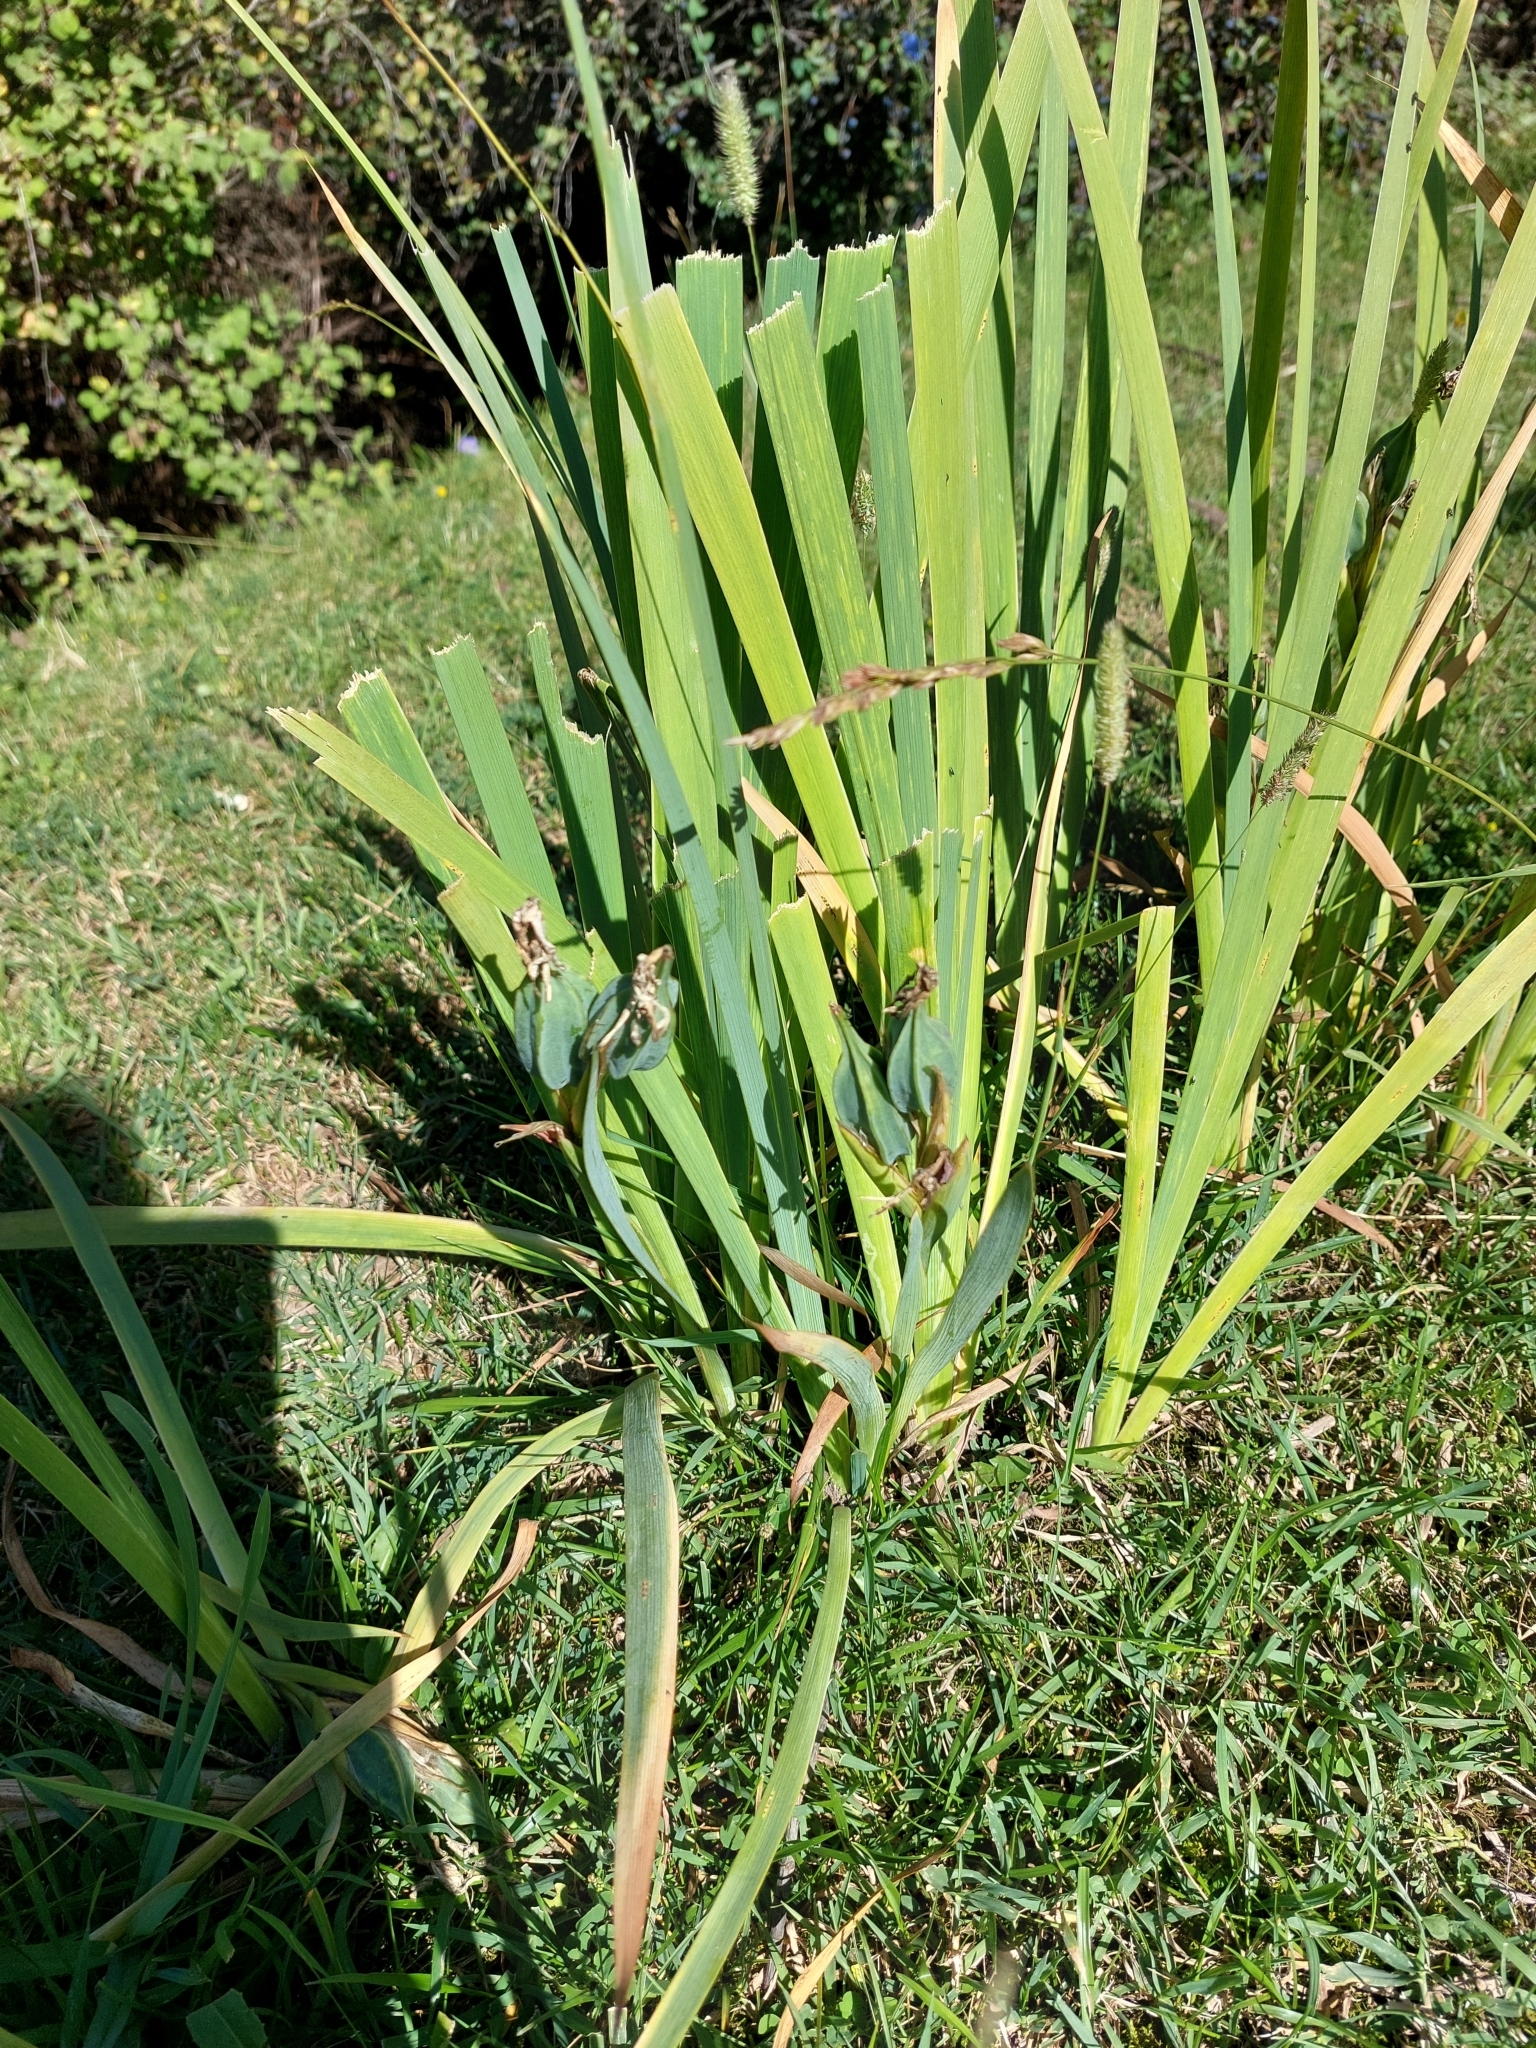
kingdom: Plantae
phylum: Tracheophyta
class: Liliopsida
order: Asparagales
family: Iridaceae
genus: Iris
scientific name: Iris halophila
